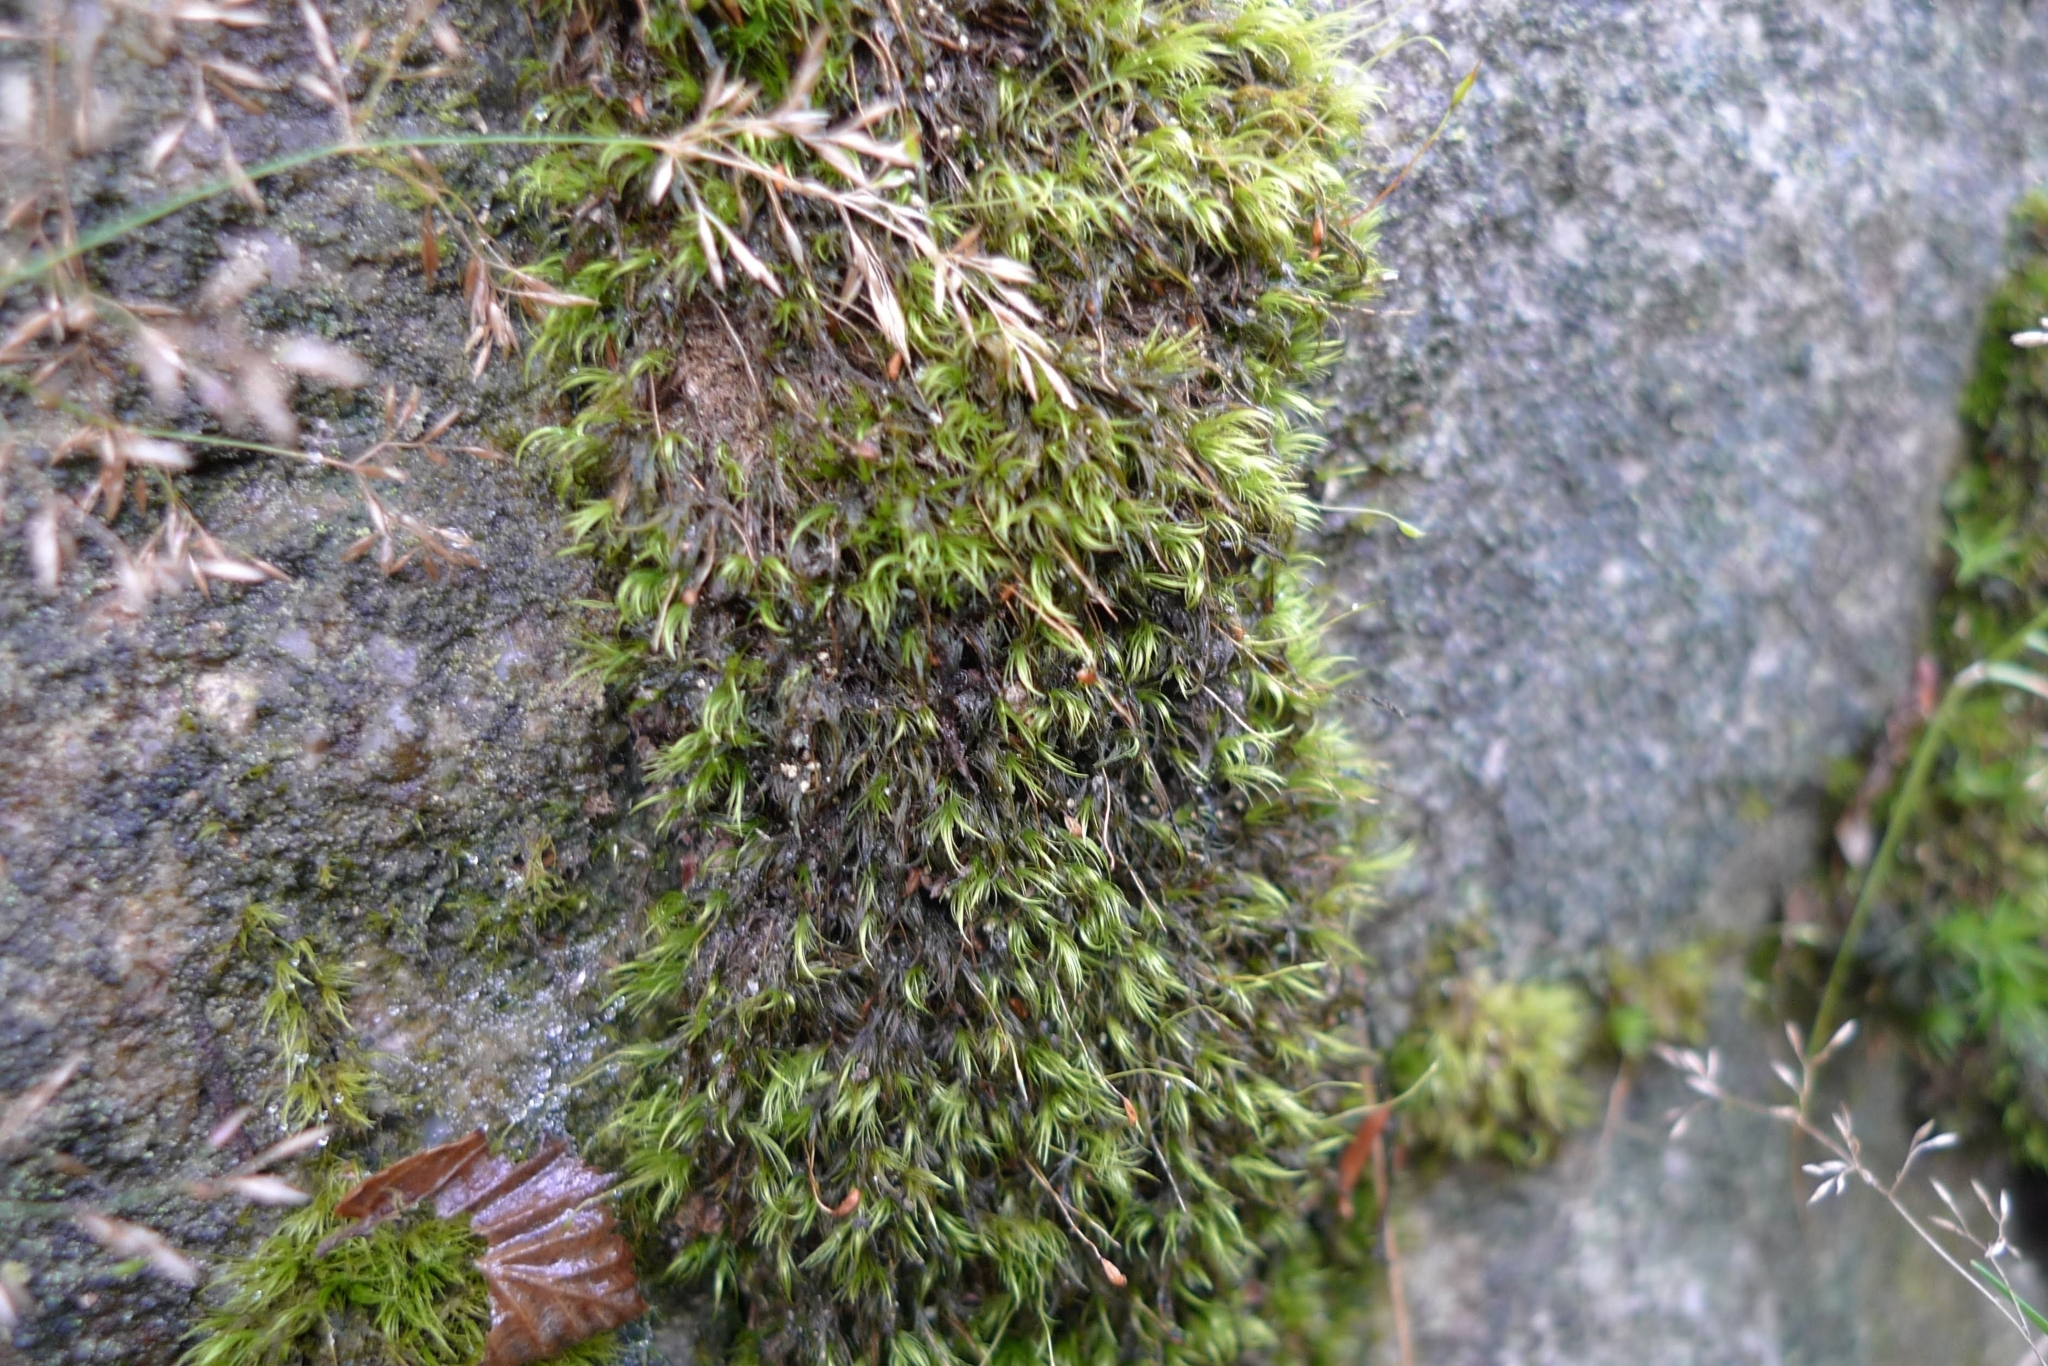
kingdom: Plantae
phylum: Bryophyta
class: Bryopsida
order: Dicranales
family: Dicranellaceae
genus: Dicranella
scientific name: Dicranella heteromalla
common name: Silky forklet moss
